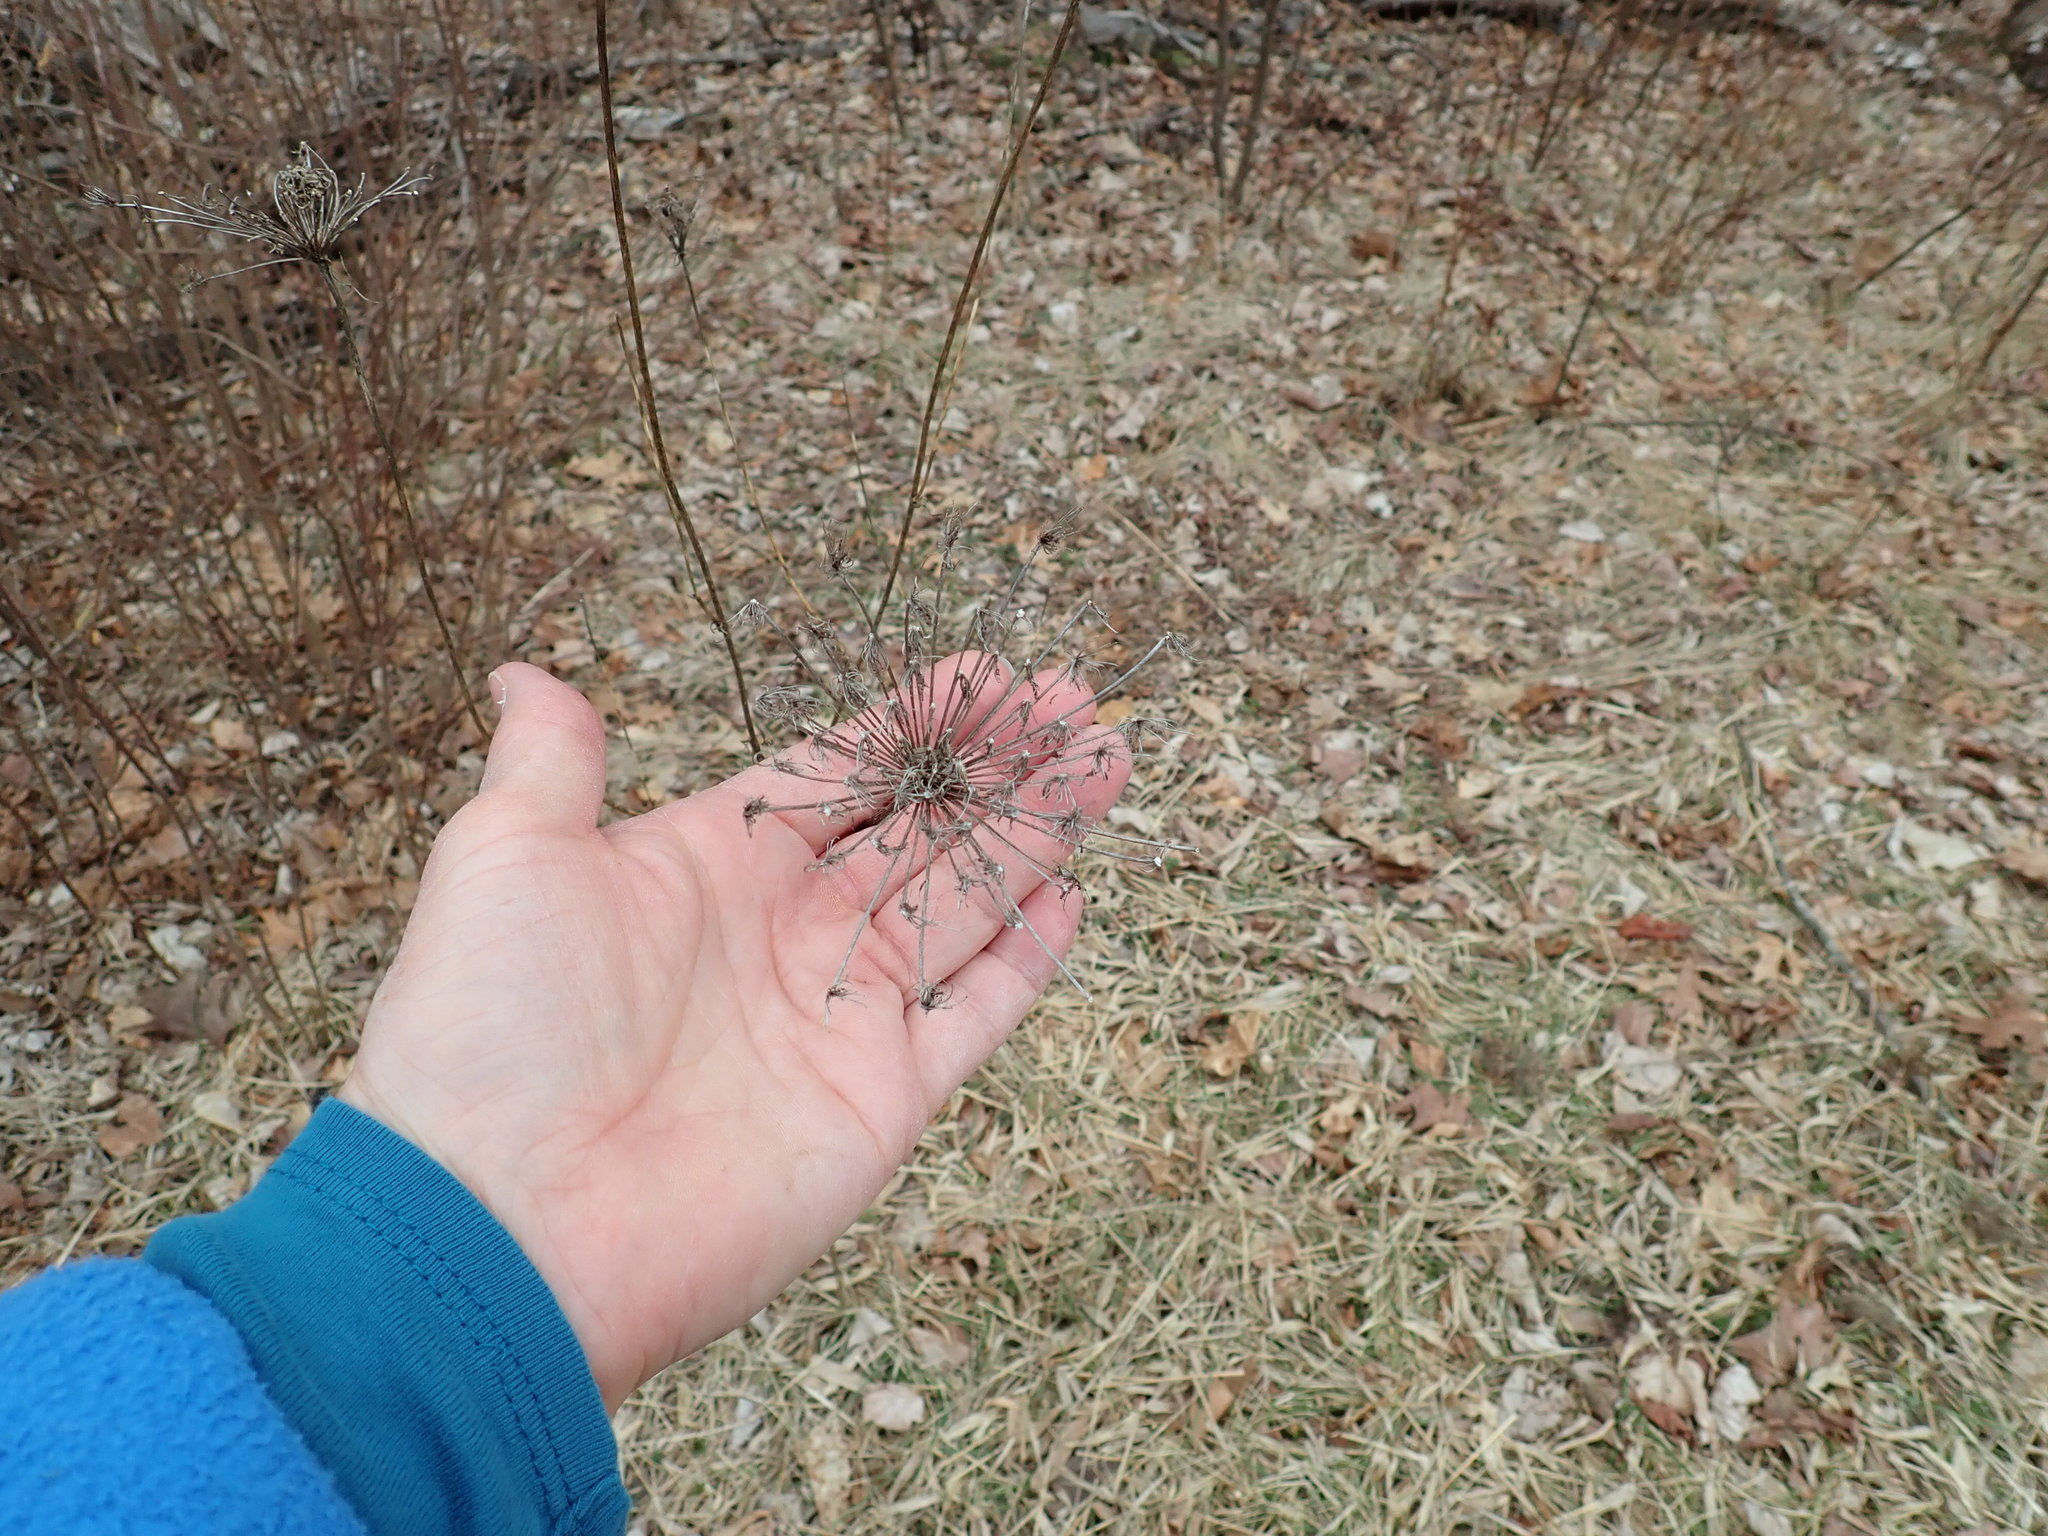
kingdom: Plantae
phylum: Tracheophyta
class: Magnoliopsida
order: Apiales
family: Apiaceae
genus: Daucus
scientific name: Daucus carota
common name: Wild carrot
